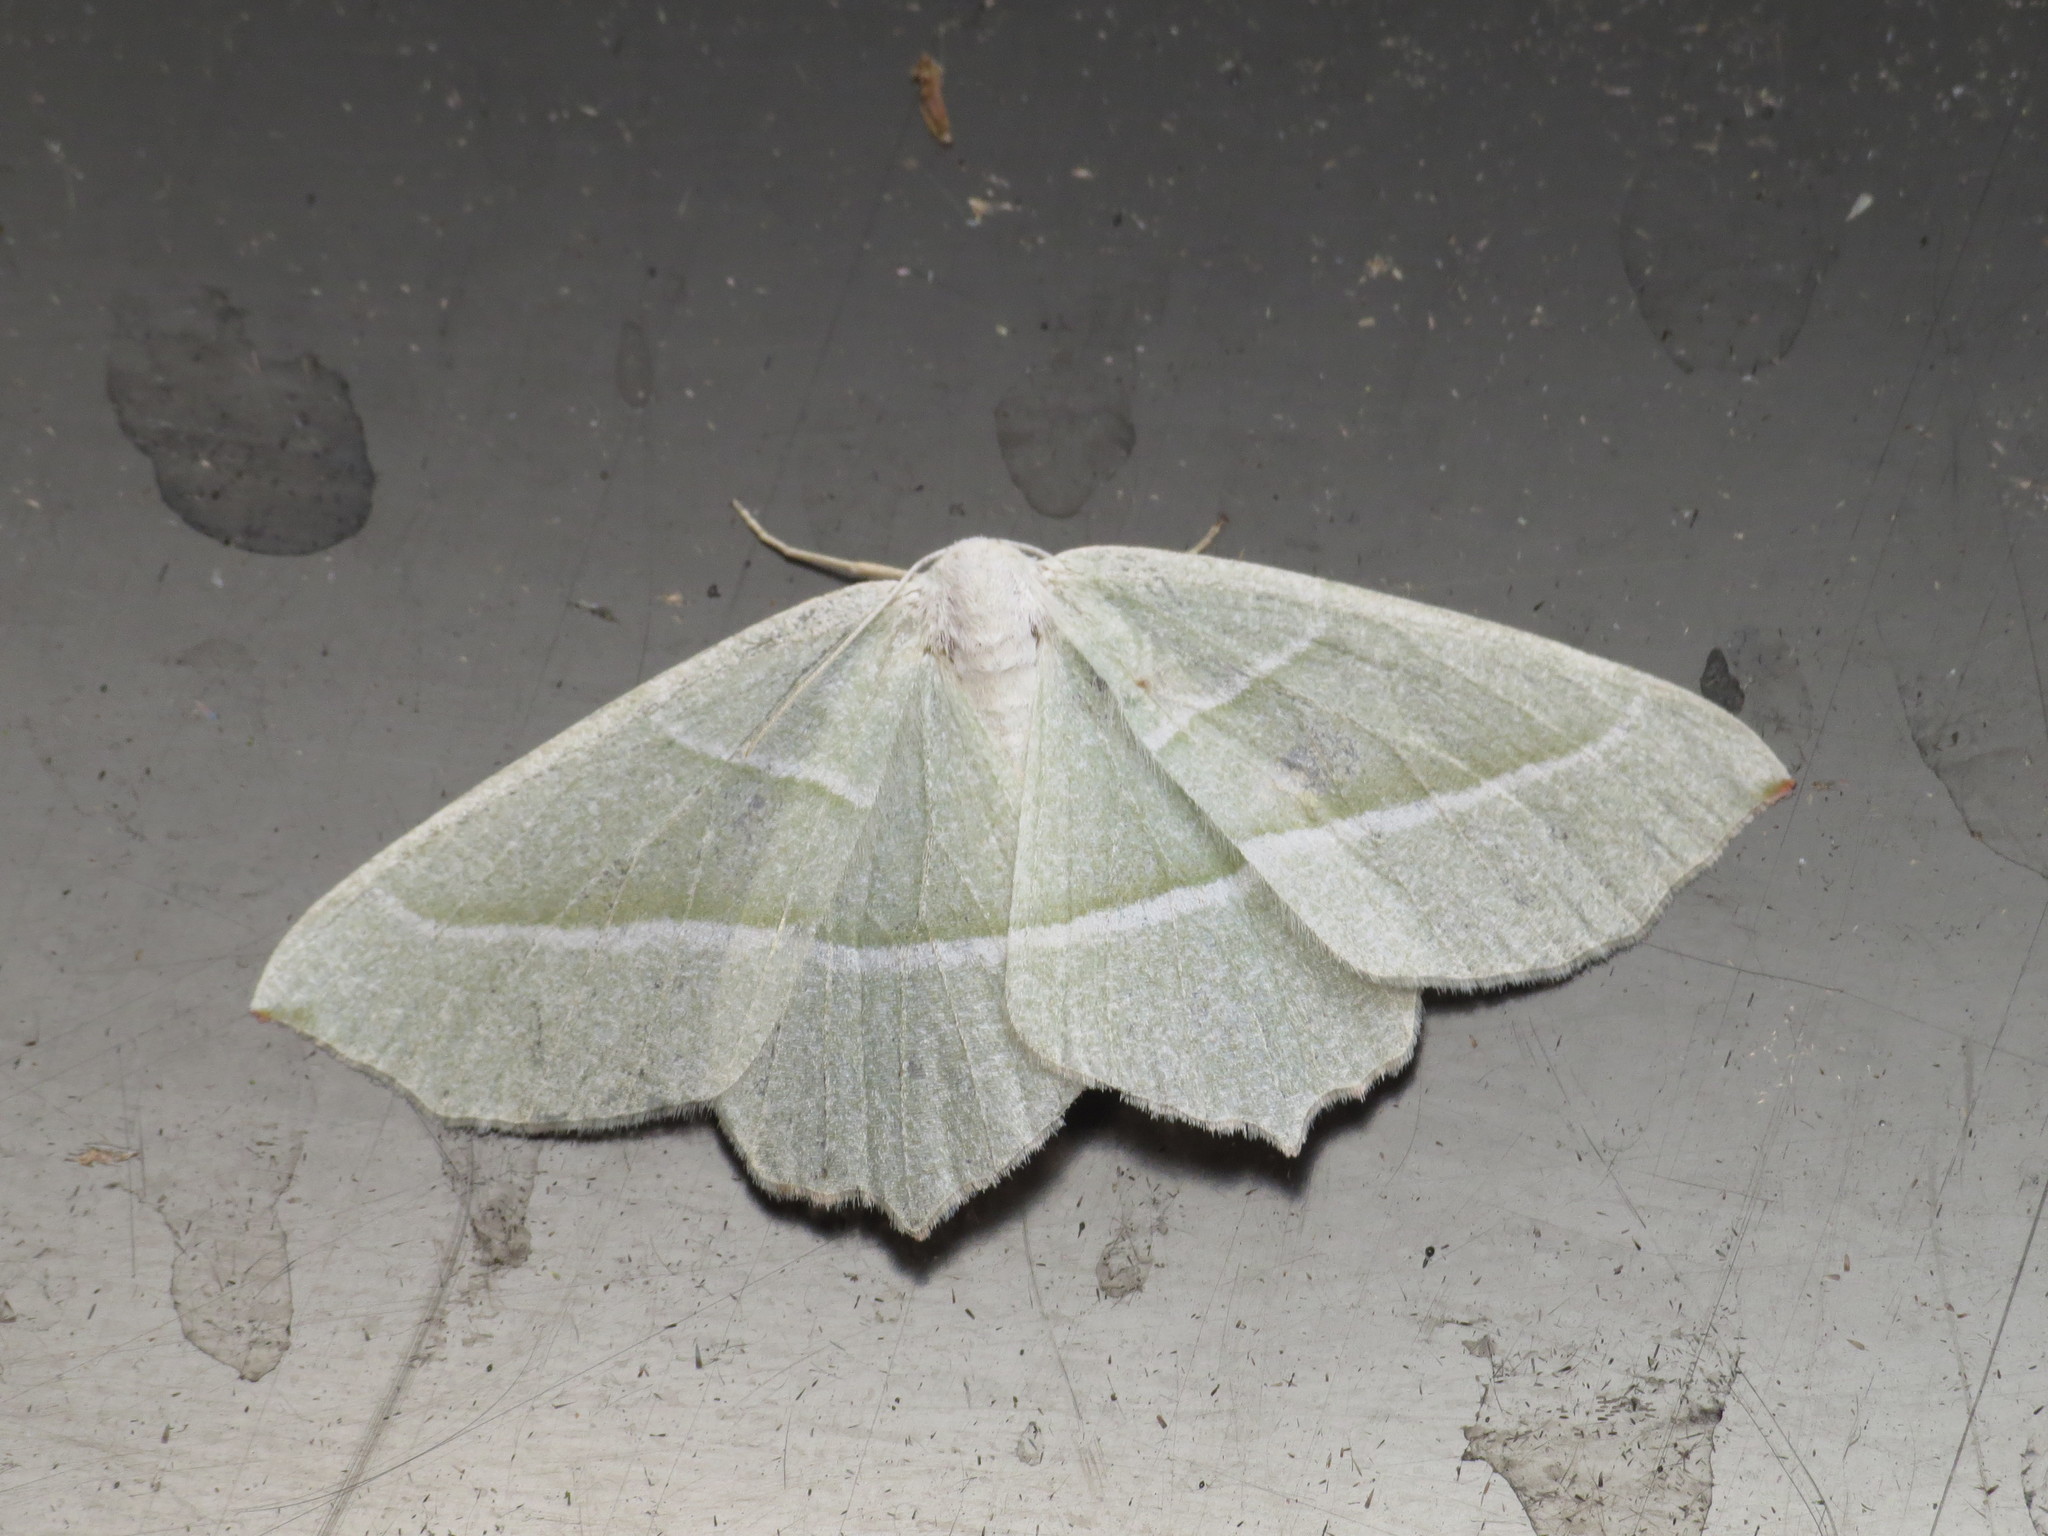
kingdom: Animalia
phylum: Arthropoda
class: Insecta
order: Lepidoptera
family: Geometridae
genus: Campaea
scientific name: Campaea margaritaria
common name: Light emerald
